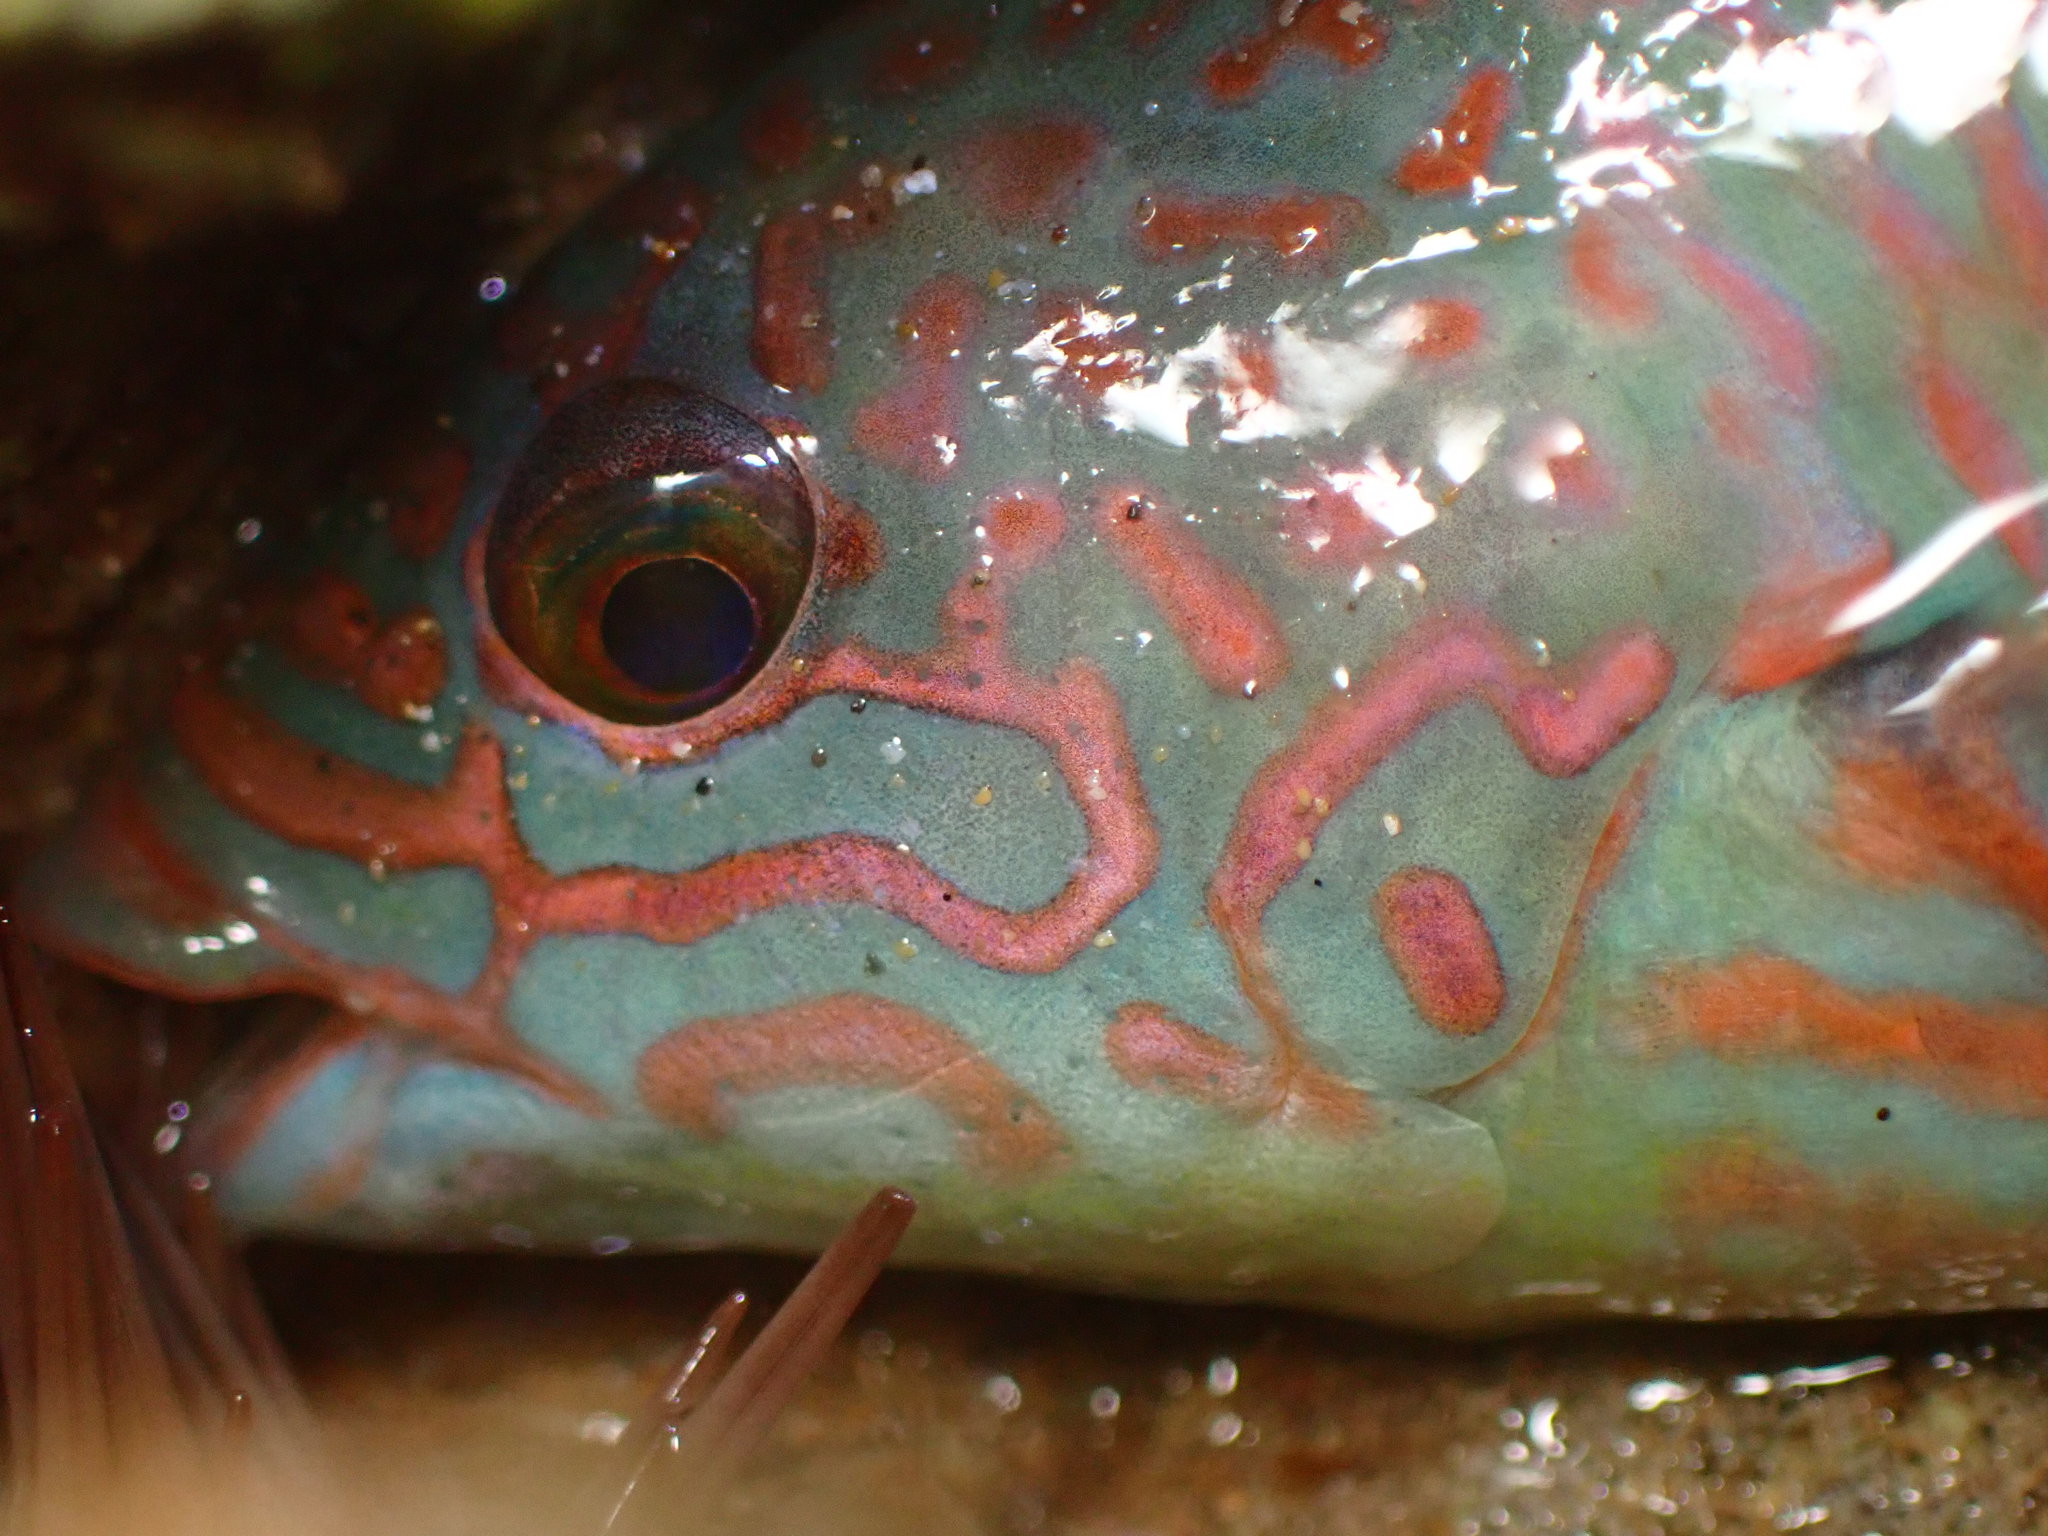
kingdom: Animalia
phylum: Chordata
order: Perciformes
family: Labridae
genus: Thalassoma
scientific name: Thalassoma trilobatum
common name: Christmas wrasse
